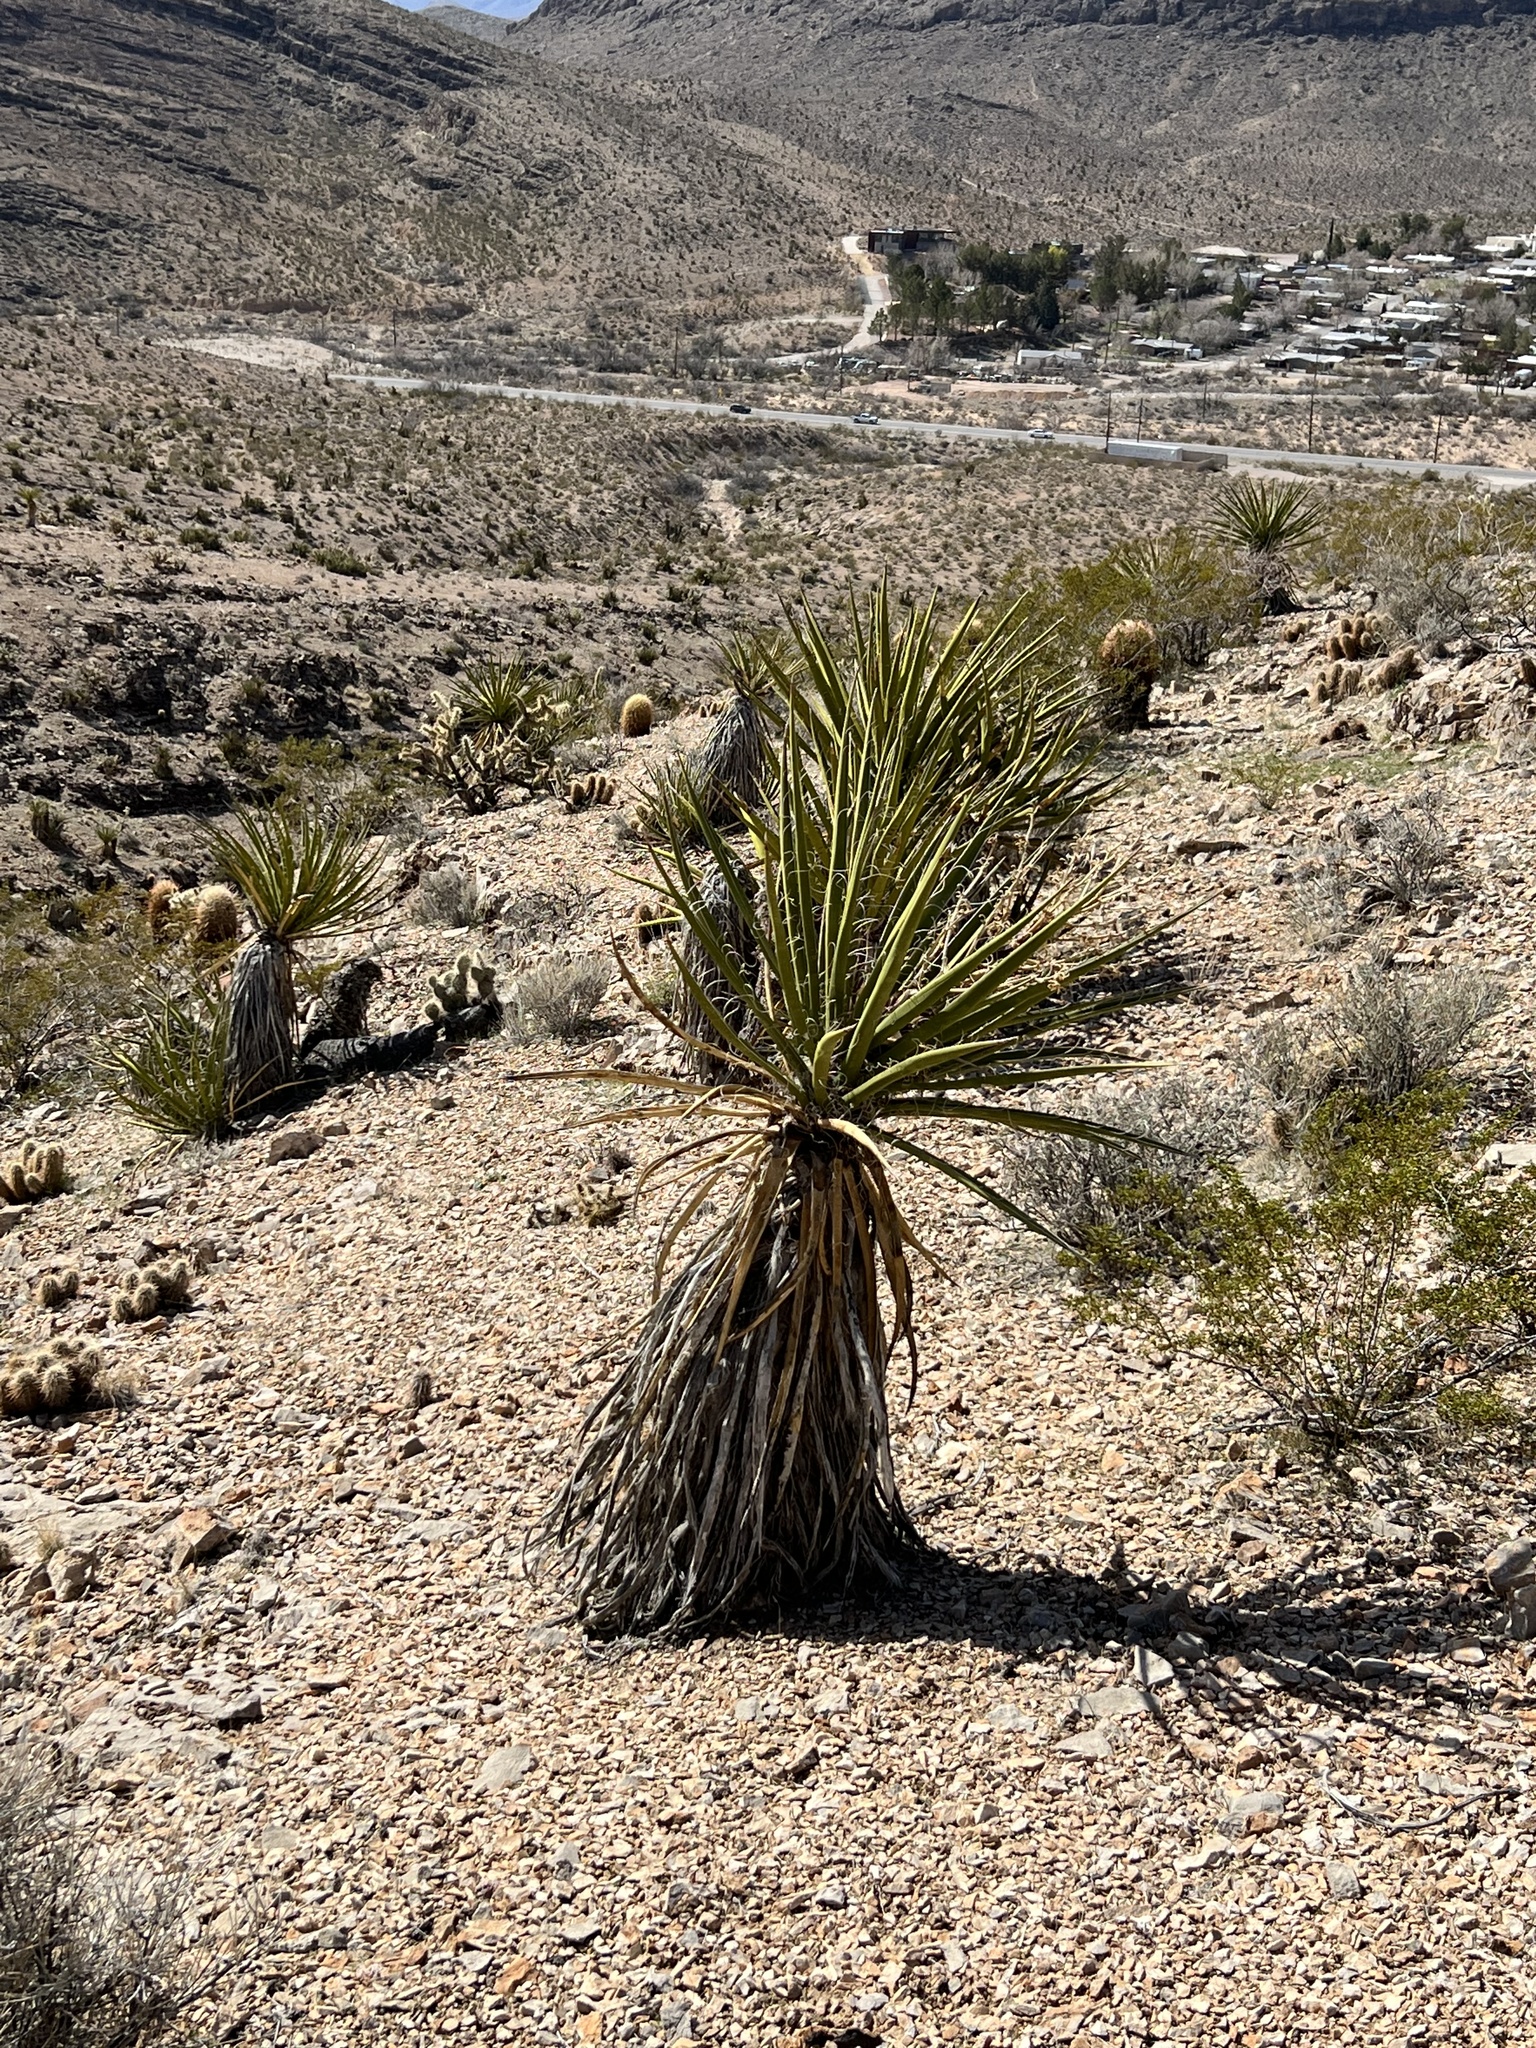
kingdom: Plantae
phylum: Tracheophyta
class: Liliopsida
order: Asparagales
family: Asparagaceae
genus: Yucca
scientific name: Yucca schidigera
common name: Mojave yucca
